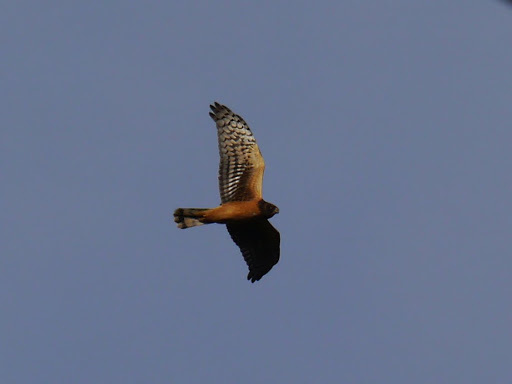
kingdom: Animalia
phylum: Chordata
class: Aves
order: Accipitriformes
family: Accipitridae
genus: Circus
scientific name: Circus cyaneus
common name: Hen harrier
